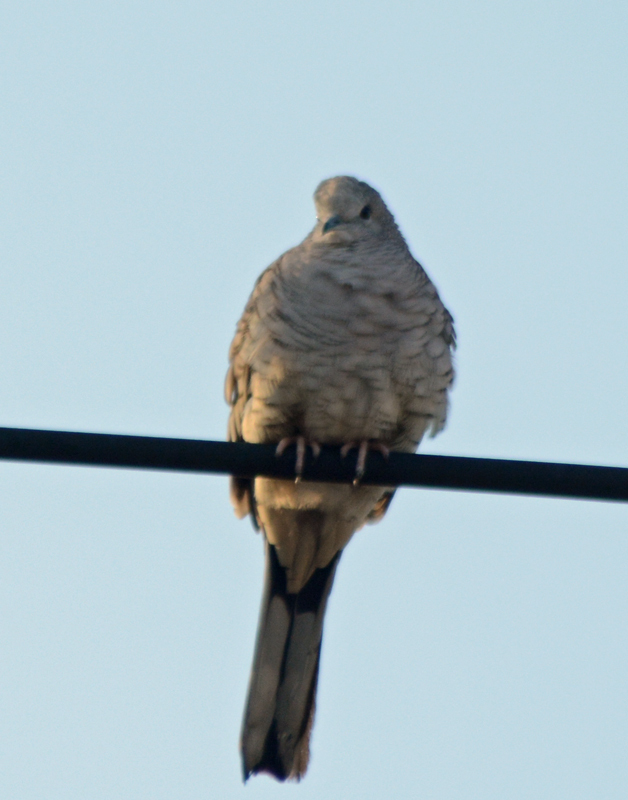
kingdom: Animalia
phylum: Chordata
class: Aves
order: Columbiformes
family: Columbidae
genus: Columbina
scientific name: Columbina inca
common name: Inca dove
